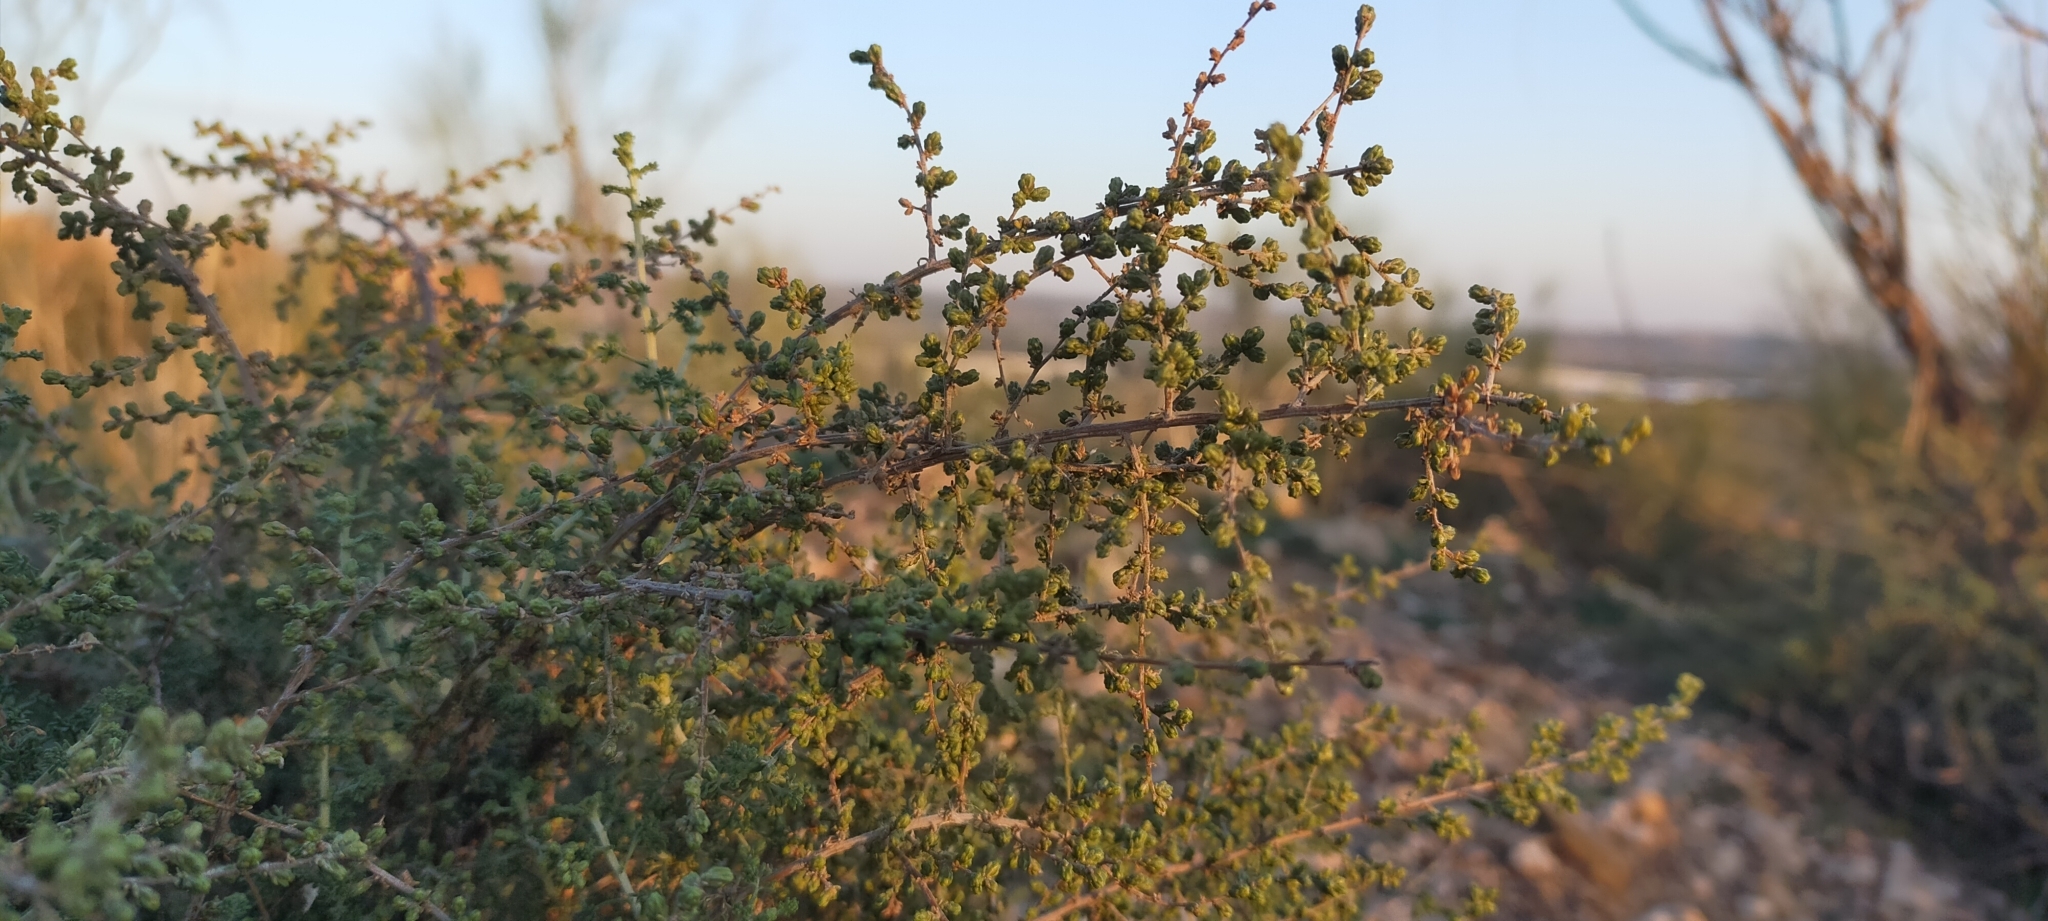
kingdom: Plantae
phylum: Tracheophyta
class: Magnoliopsida
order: Asterales
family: Asteraceae
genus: Artemisia
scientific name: Artemisia herba-alba
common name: White wormwood
